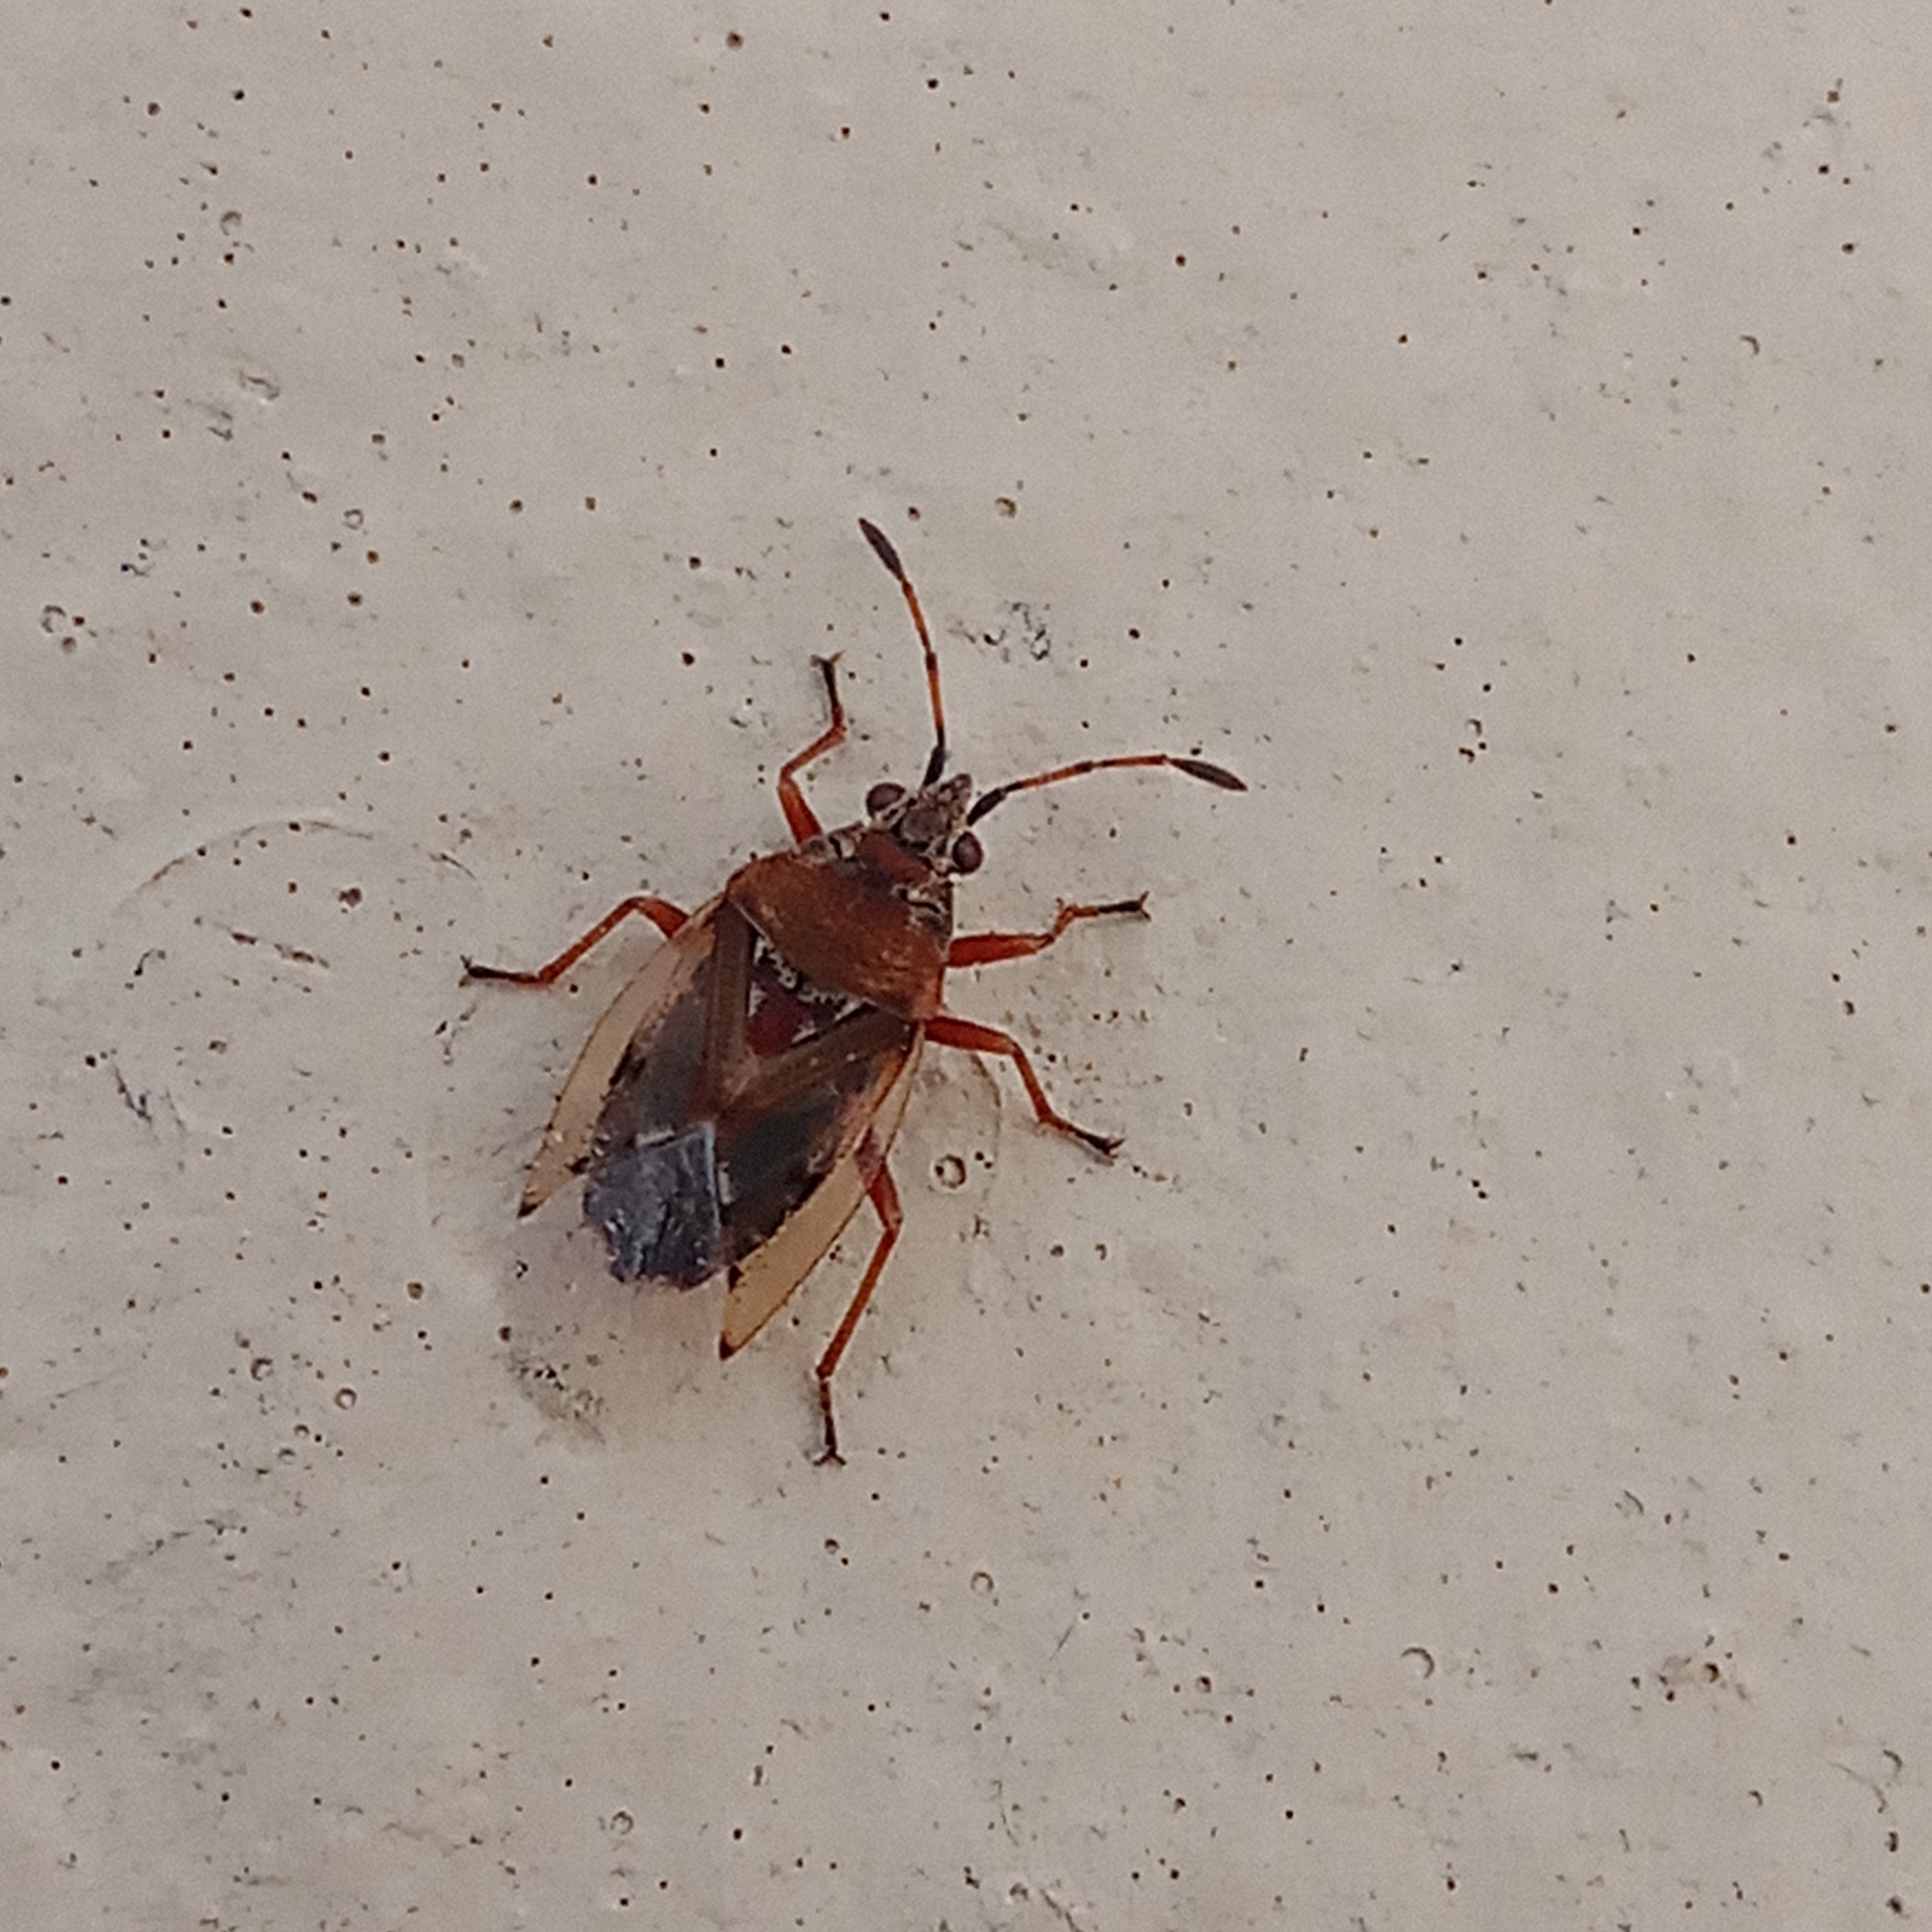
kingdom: Animalia
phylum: Arthropoda
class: Insecta
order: Hemiptera
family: Lygaeidae
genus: Kleidocerys
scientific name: Kleidocerys resedae
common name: Birch catkin bug
